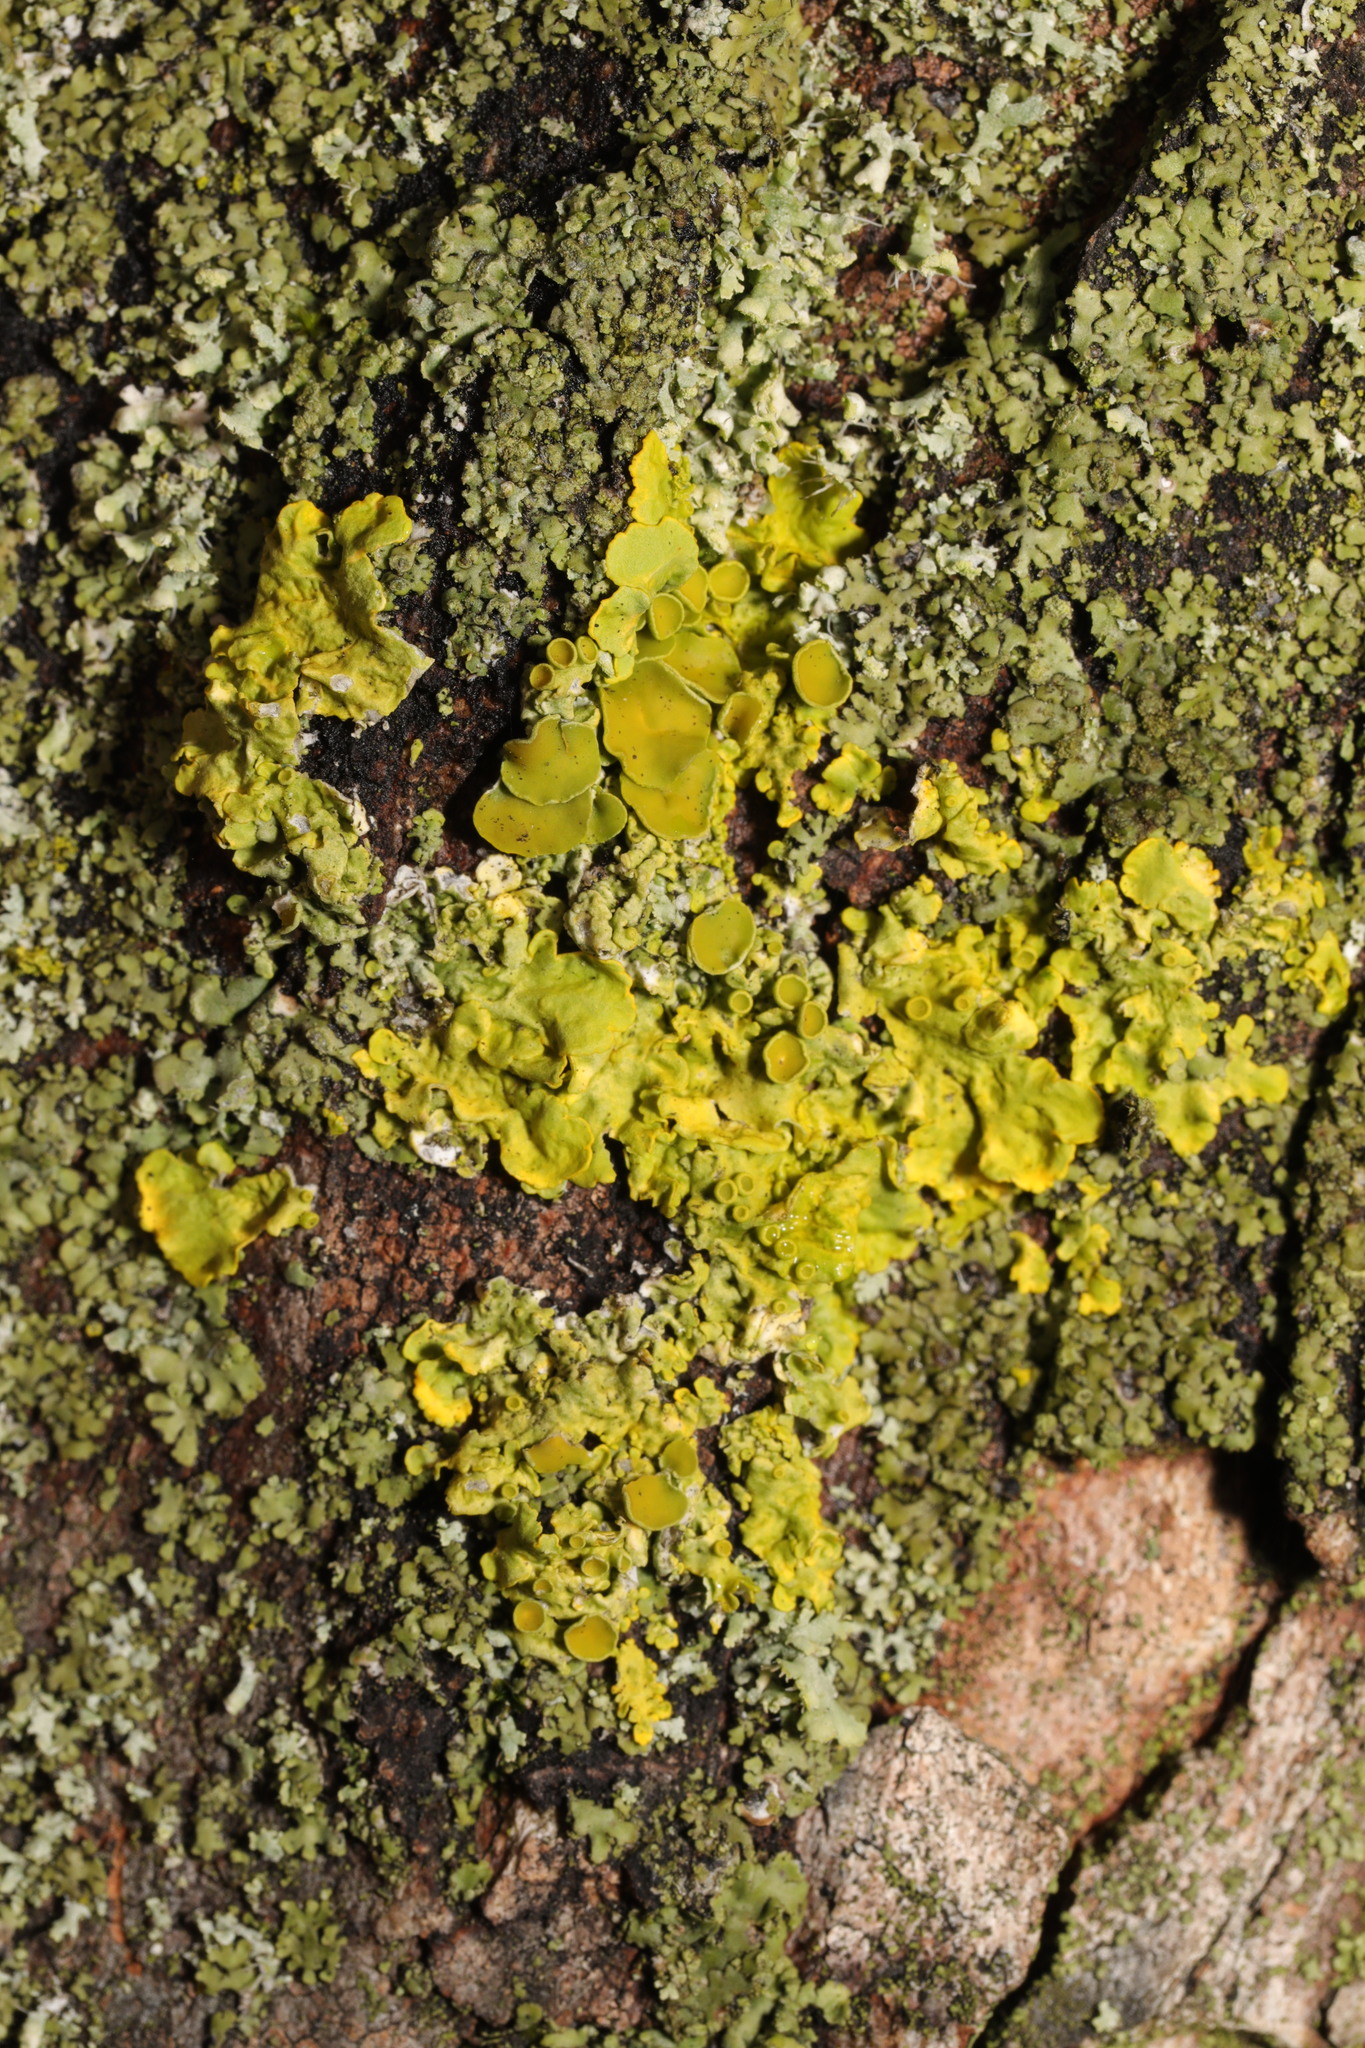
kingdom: Fungi
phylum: Ascomycota
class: Lecanoromycetes
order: Teloschistales
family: Teloschistaceae
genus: Xanthoria
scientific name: Xanthoria parietina
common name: Common orange lichen
